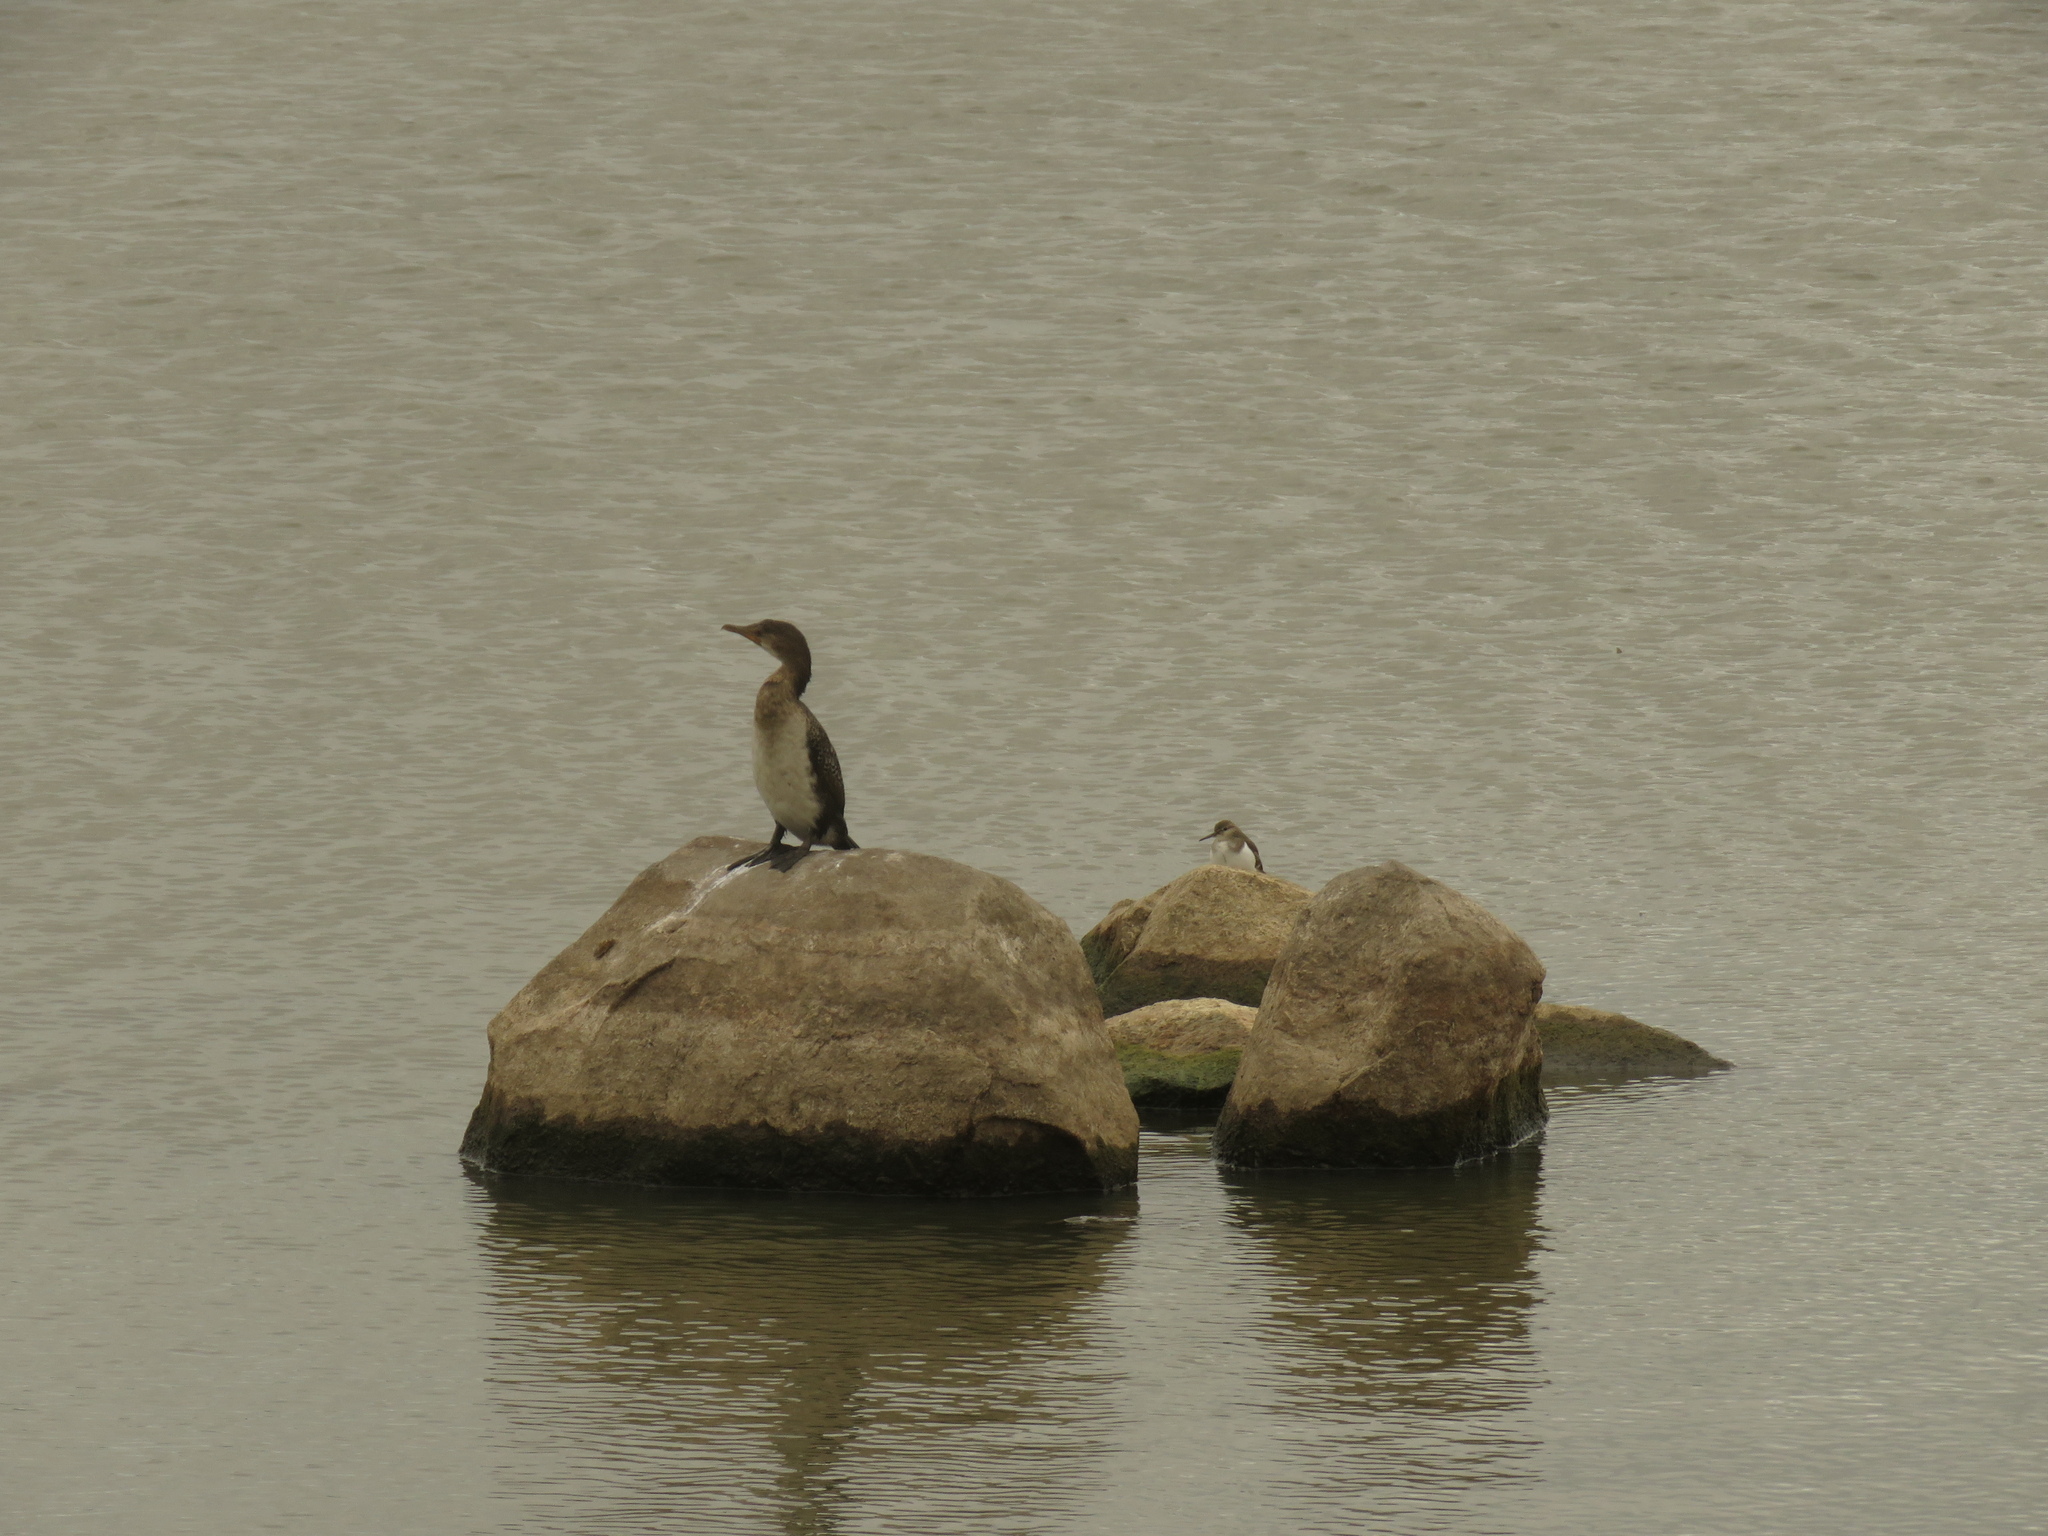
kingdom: Animalia
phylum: Chordata
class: Aves
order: Suliformes
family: Phalacrocoracidae
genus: Microcarbo
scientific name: Microcarbo africanus
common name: Long-tailed cormorant
